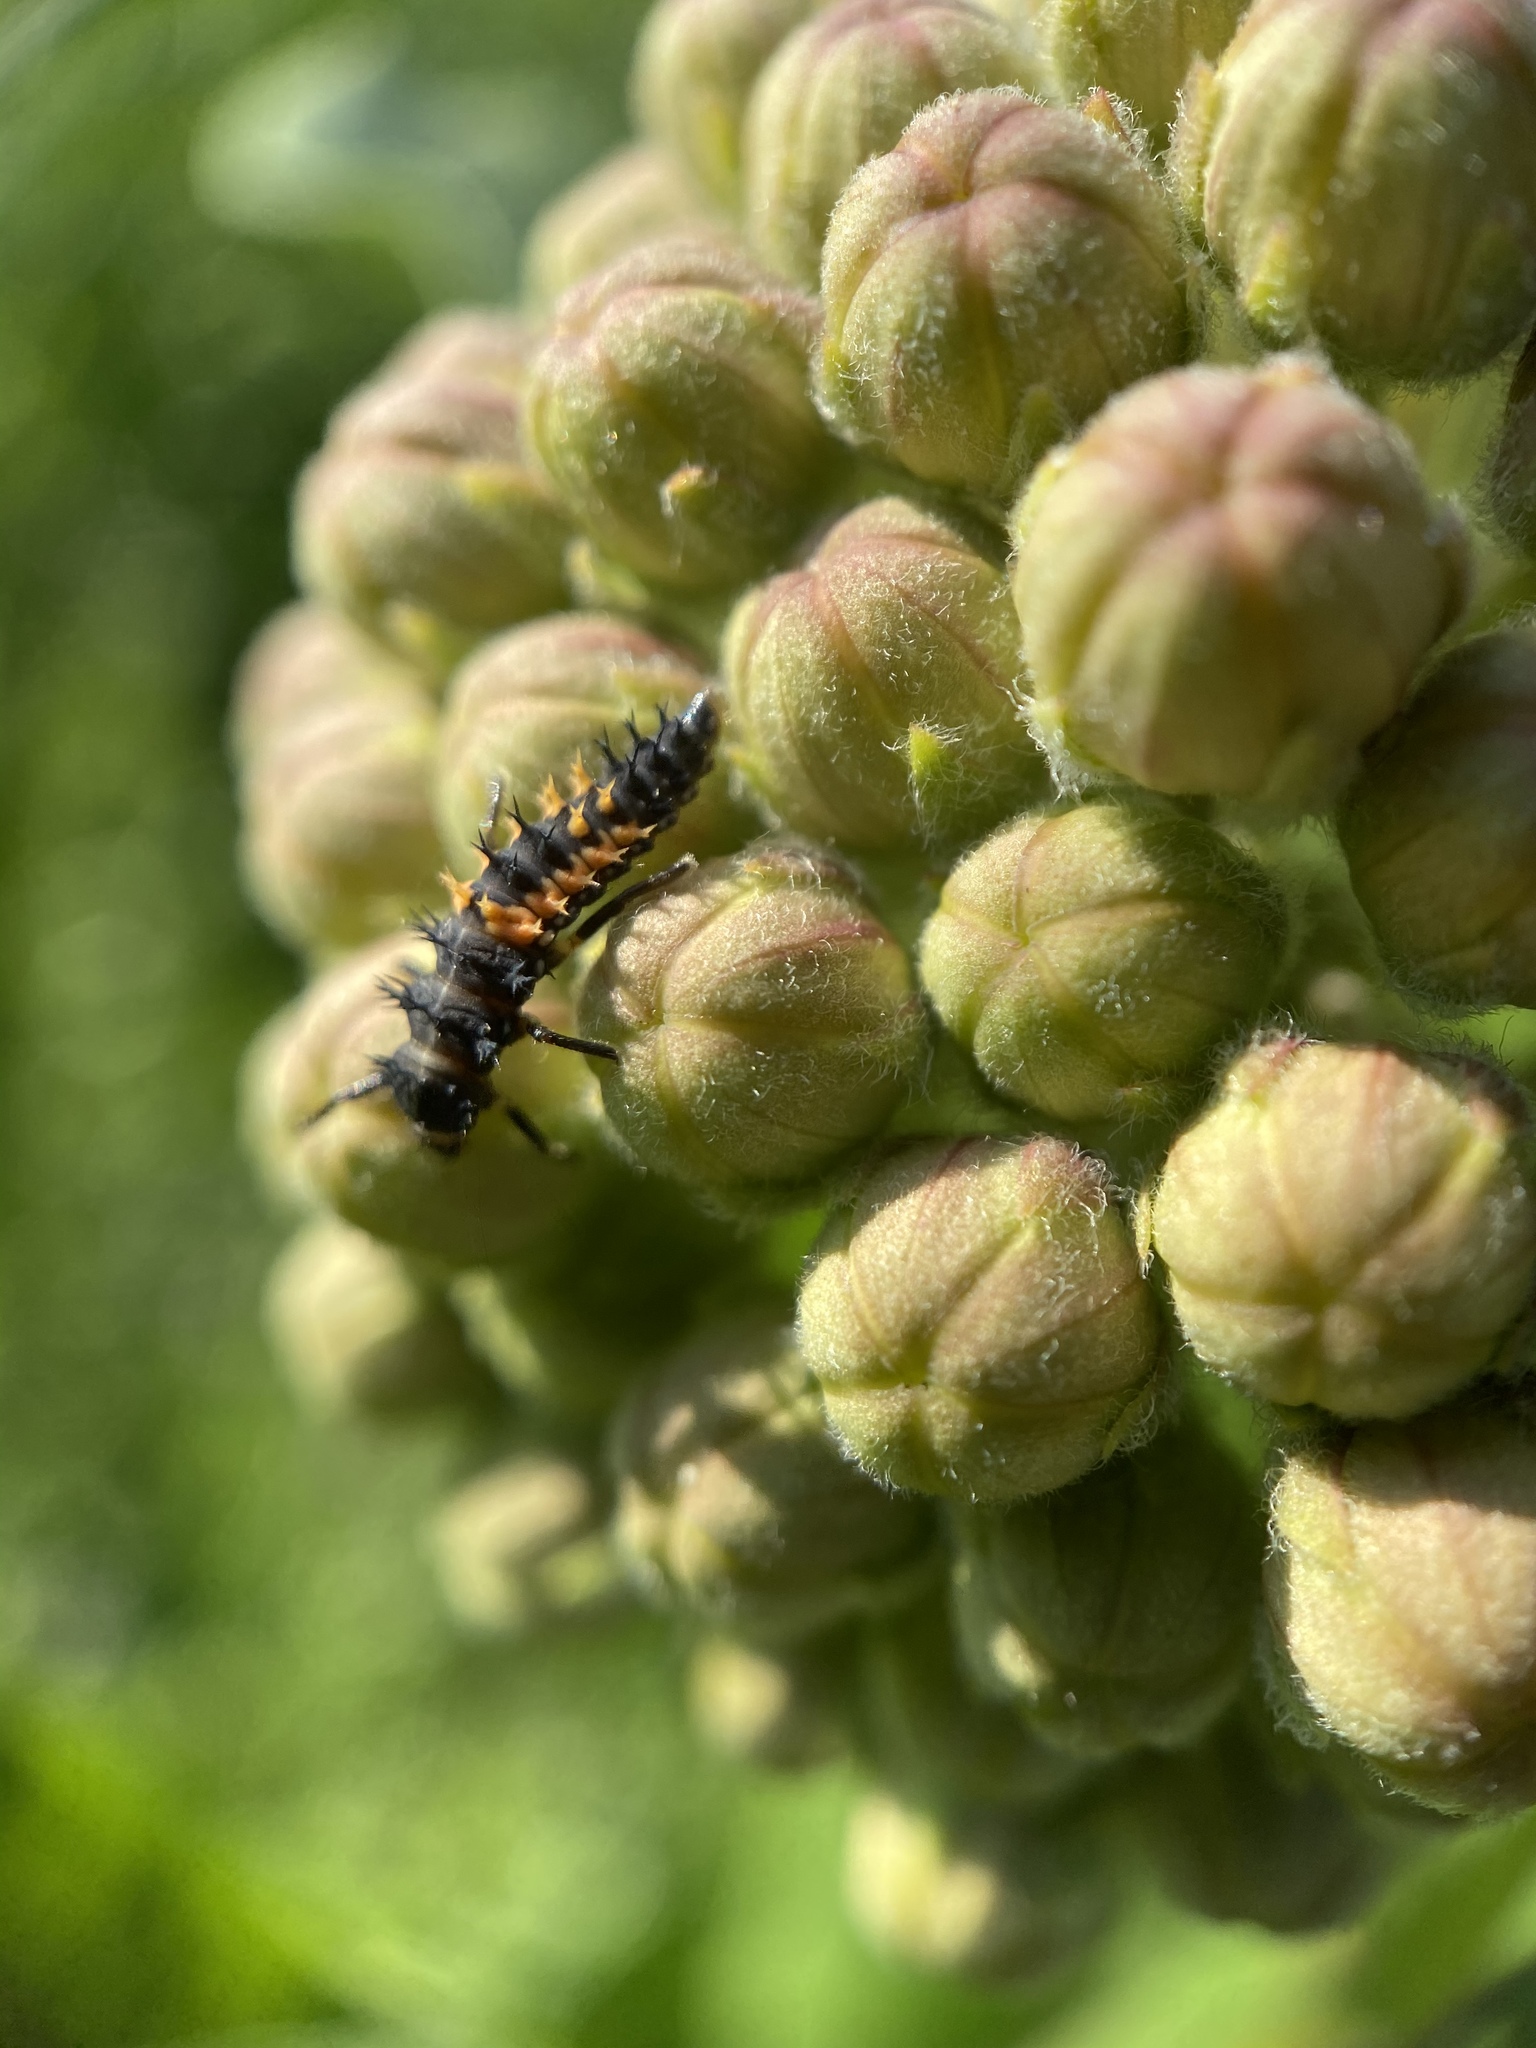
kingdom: Animalia
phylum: Arthropoda
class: Insecta
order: Coleoptera
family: Coccinellidae
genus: Harmonia
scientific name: Harmonia axyridis
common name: Harlequin ladybird
